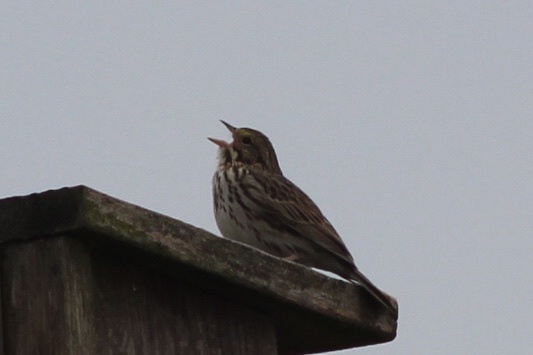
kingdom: Animalia
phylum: Chordata
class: Aves
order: Passeriformes
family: Passerellidae
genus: Passerculus
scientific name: Passerculus sandwichensis
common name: Savannah sparrow
